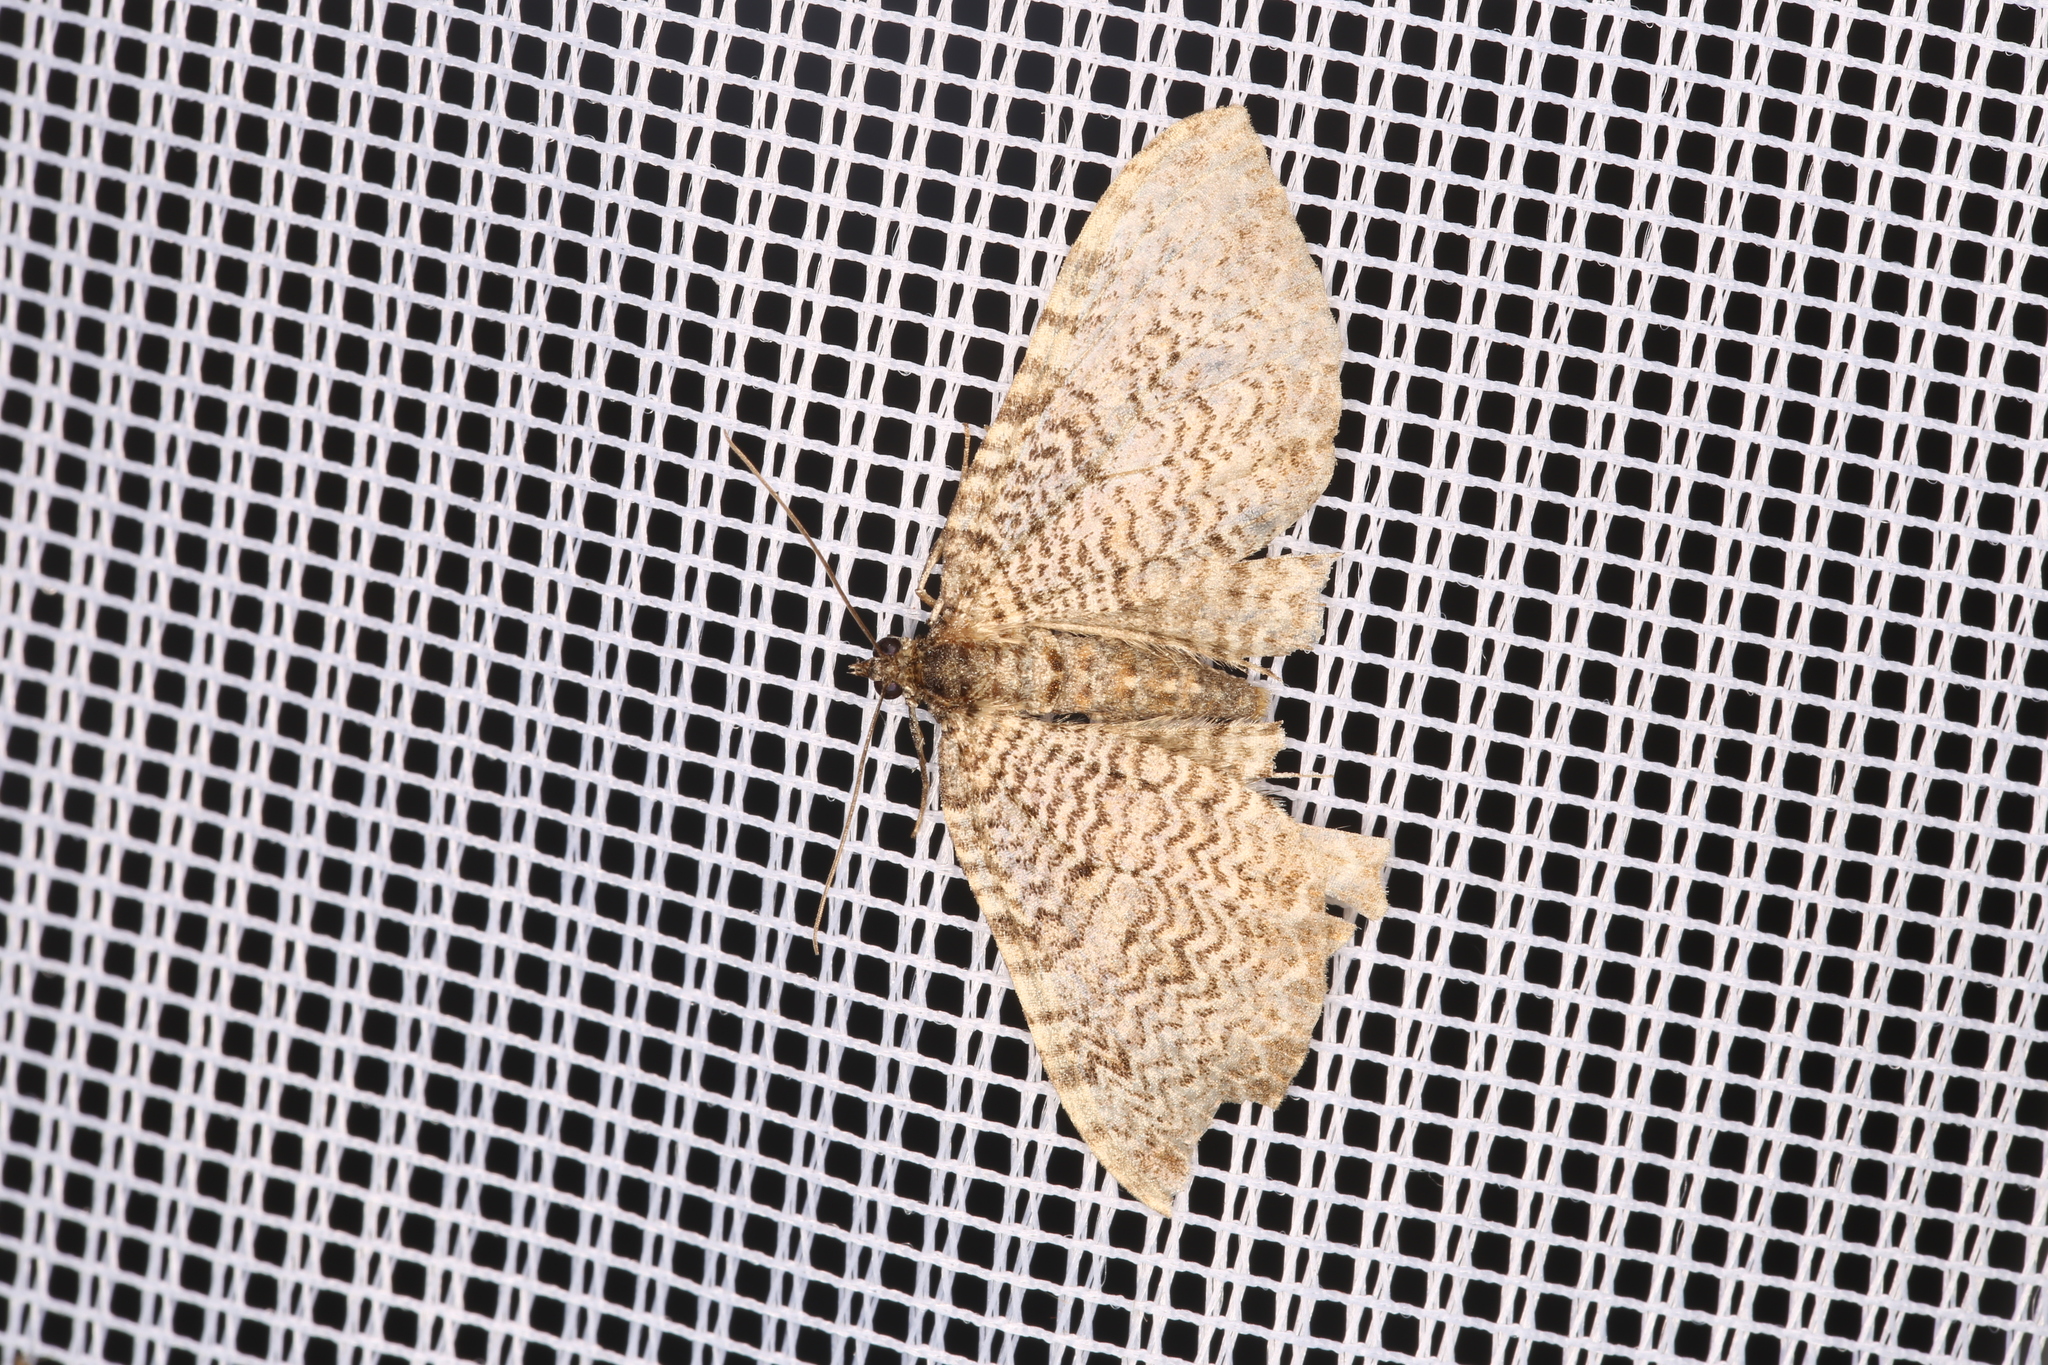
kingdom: Animalia
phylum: Arthropoda
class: Insecta
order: Lepidoptera
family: Geometridae
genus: Rheumaptera
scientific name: Rheumaptera undulata
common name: Scallop shell
